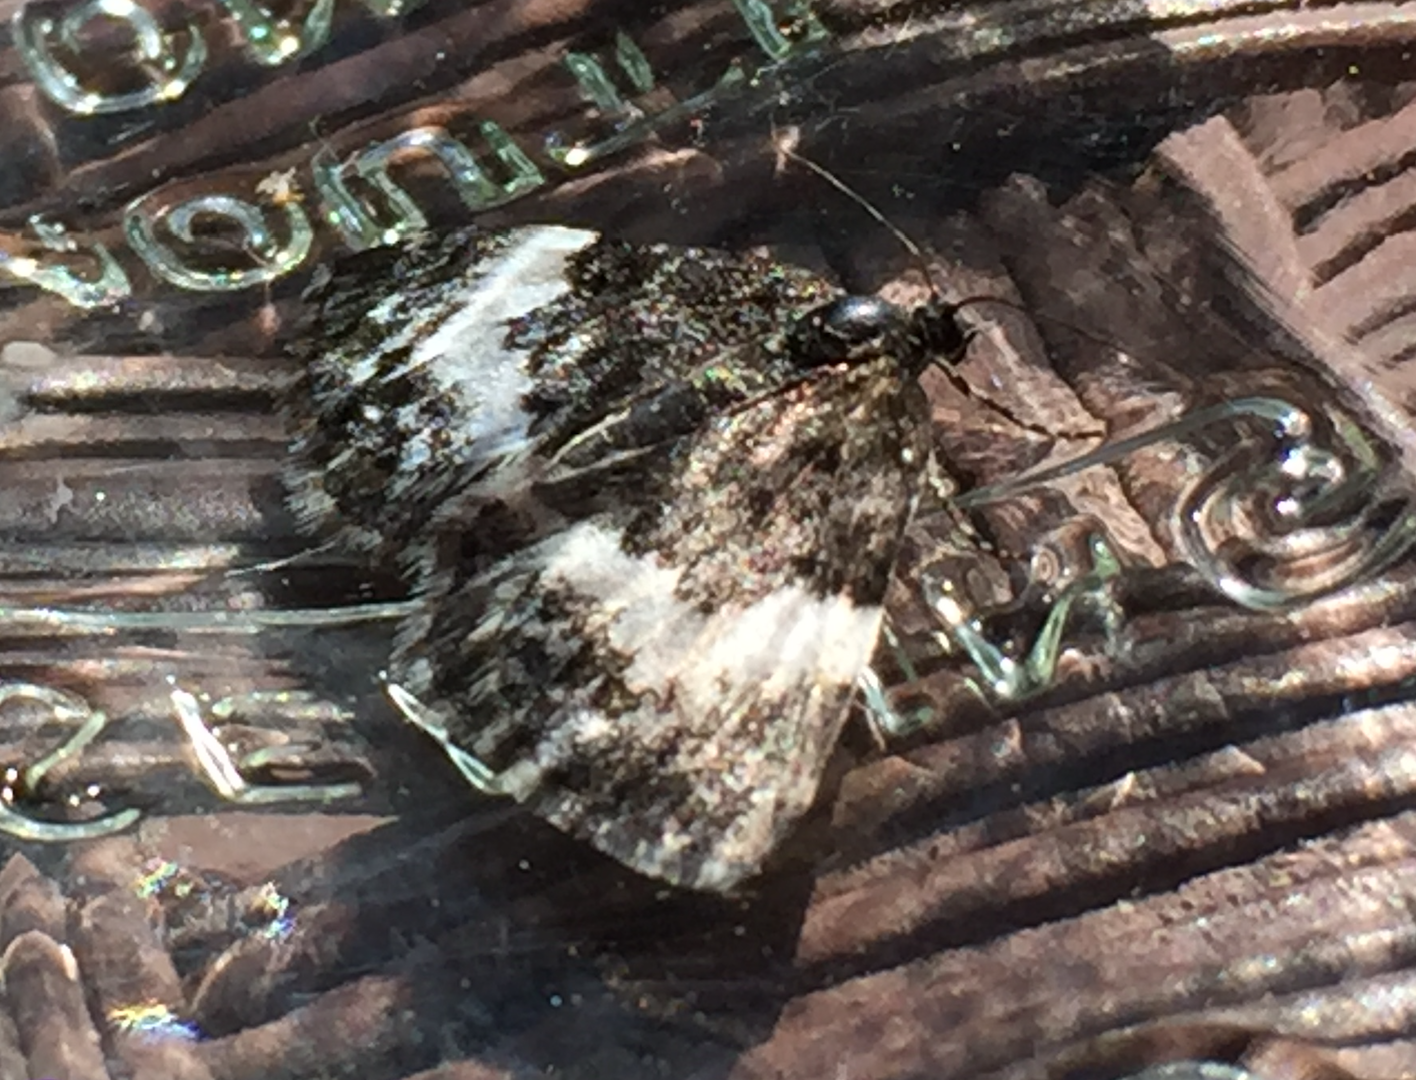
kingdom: Animalia
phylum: Arthropoda
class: Insecta
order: Lepidoptera
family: Geometridae
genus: Spargania
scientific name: Spargania luctuata
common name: White-banded carpet
